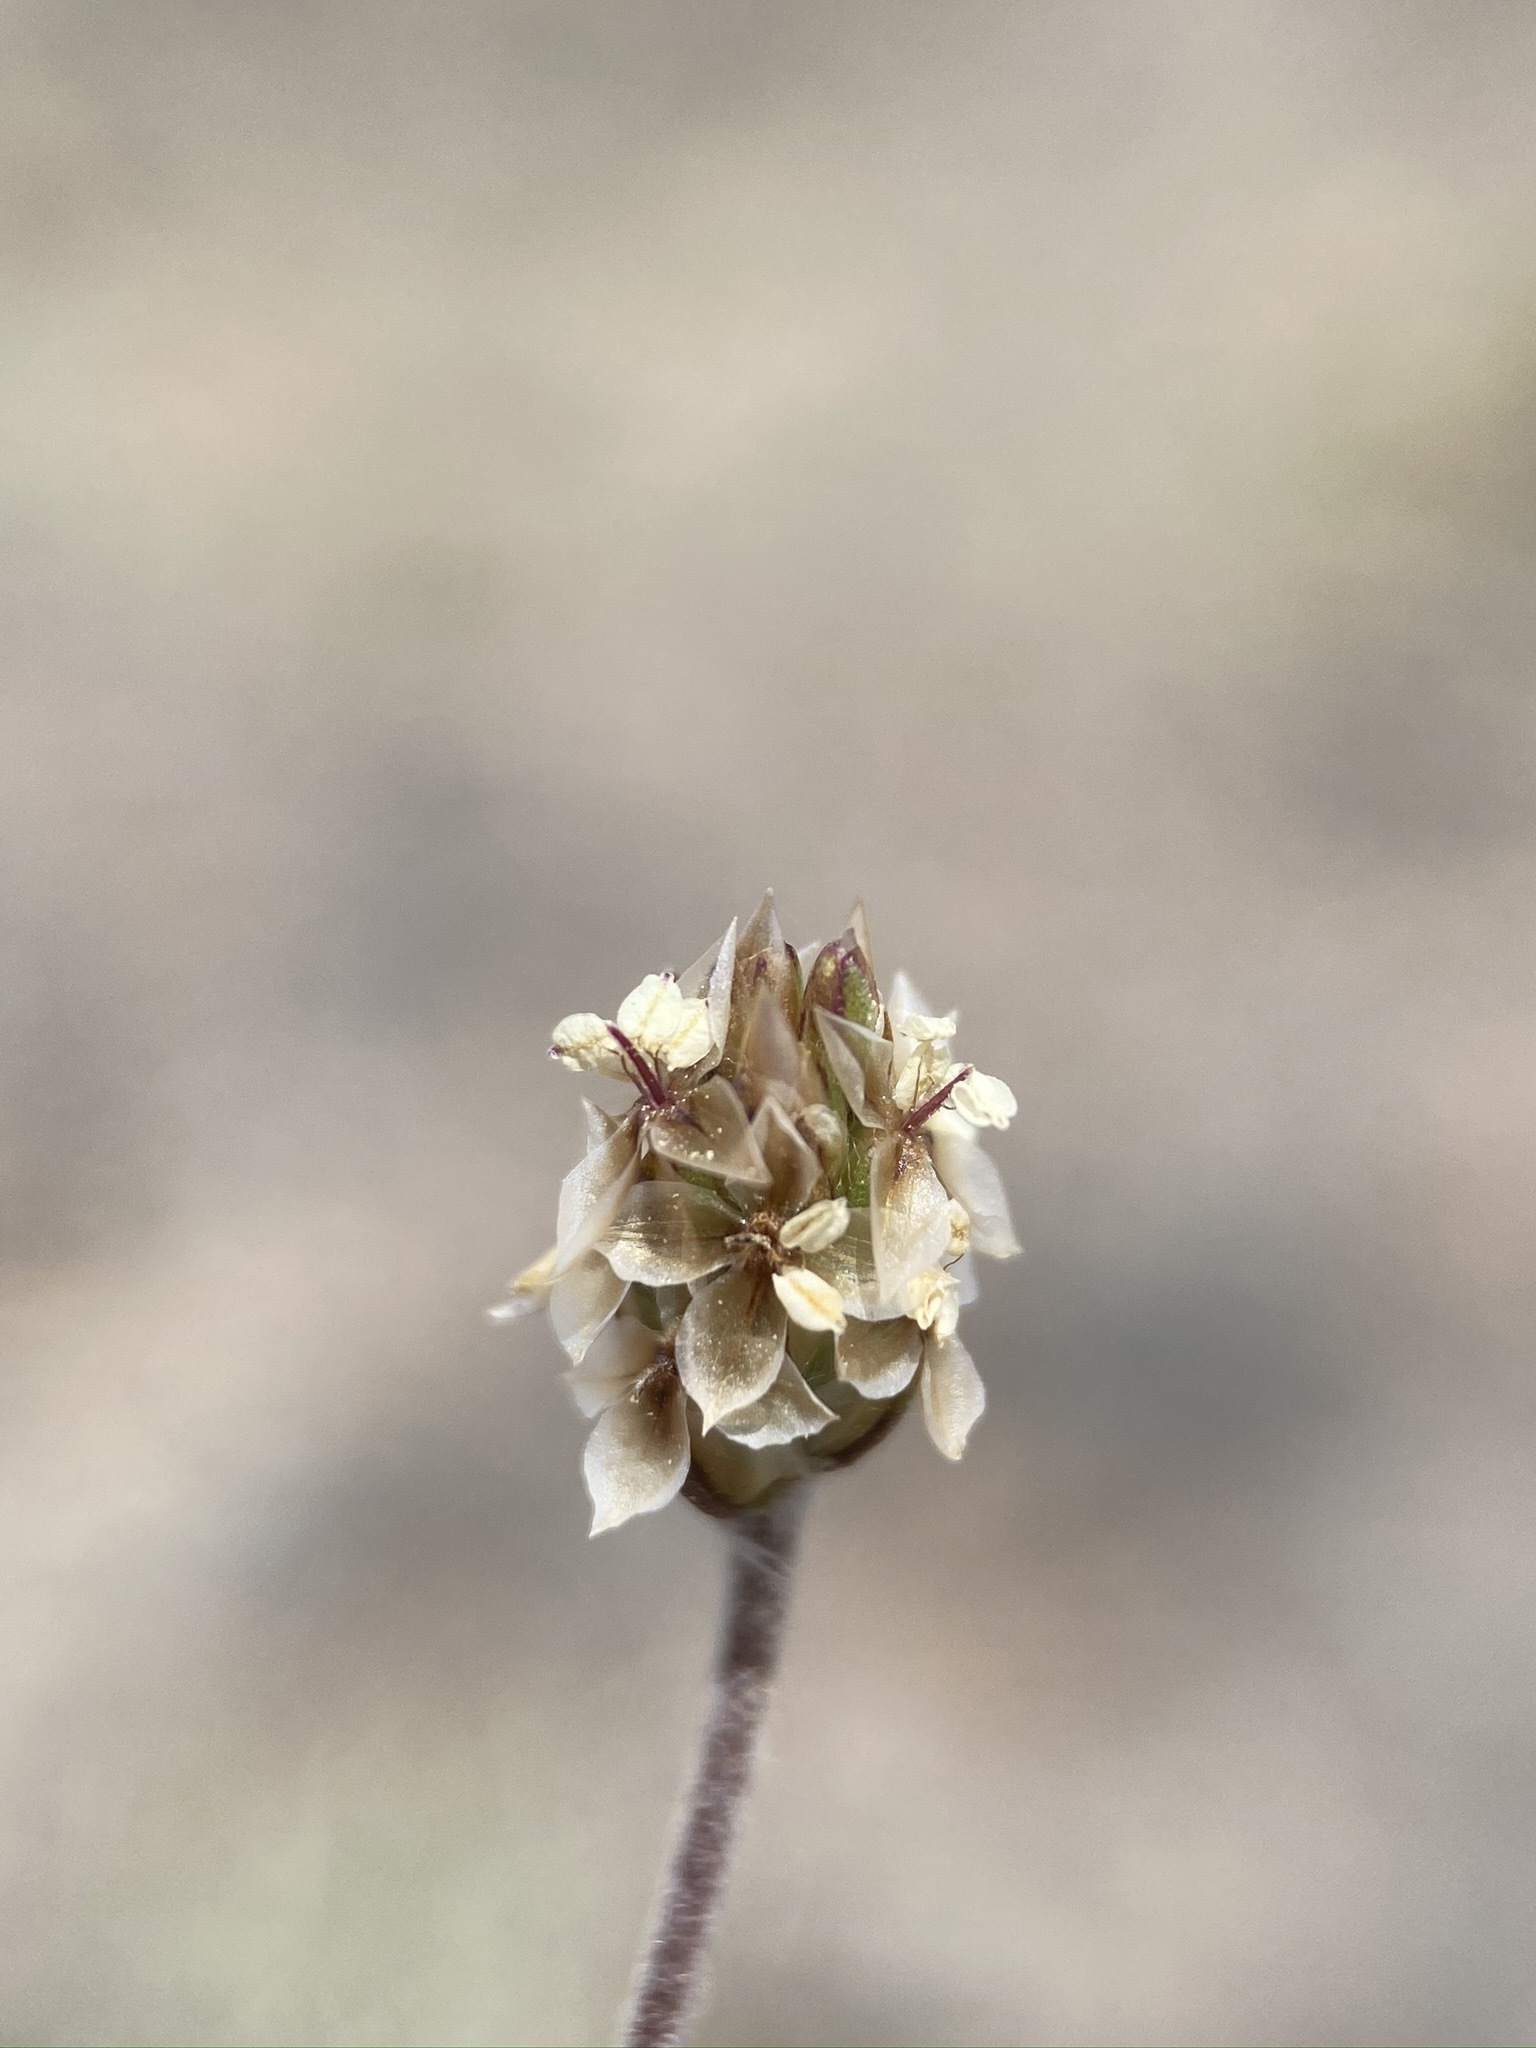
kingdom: Plantae
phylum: Tracheophyta
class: Magnoliopsida
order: Lamiales
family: Plantaginaceae
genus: Plantago
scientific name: Plantago ovata
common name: Blond plantain
